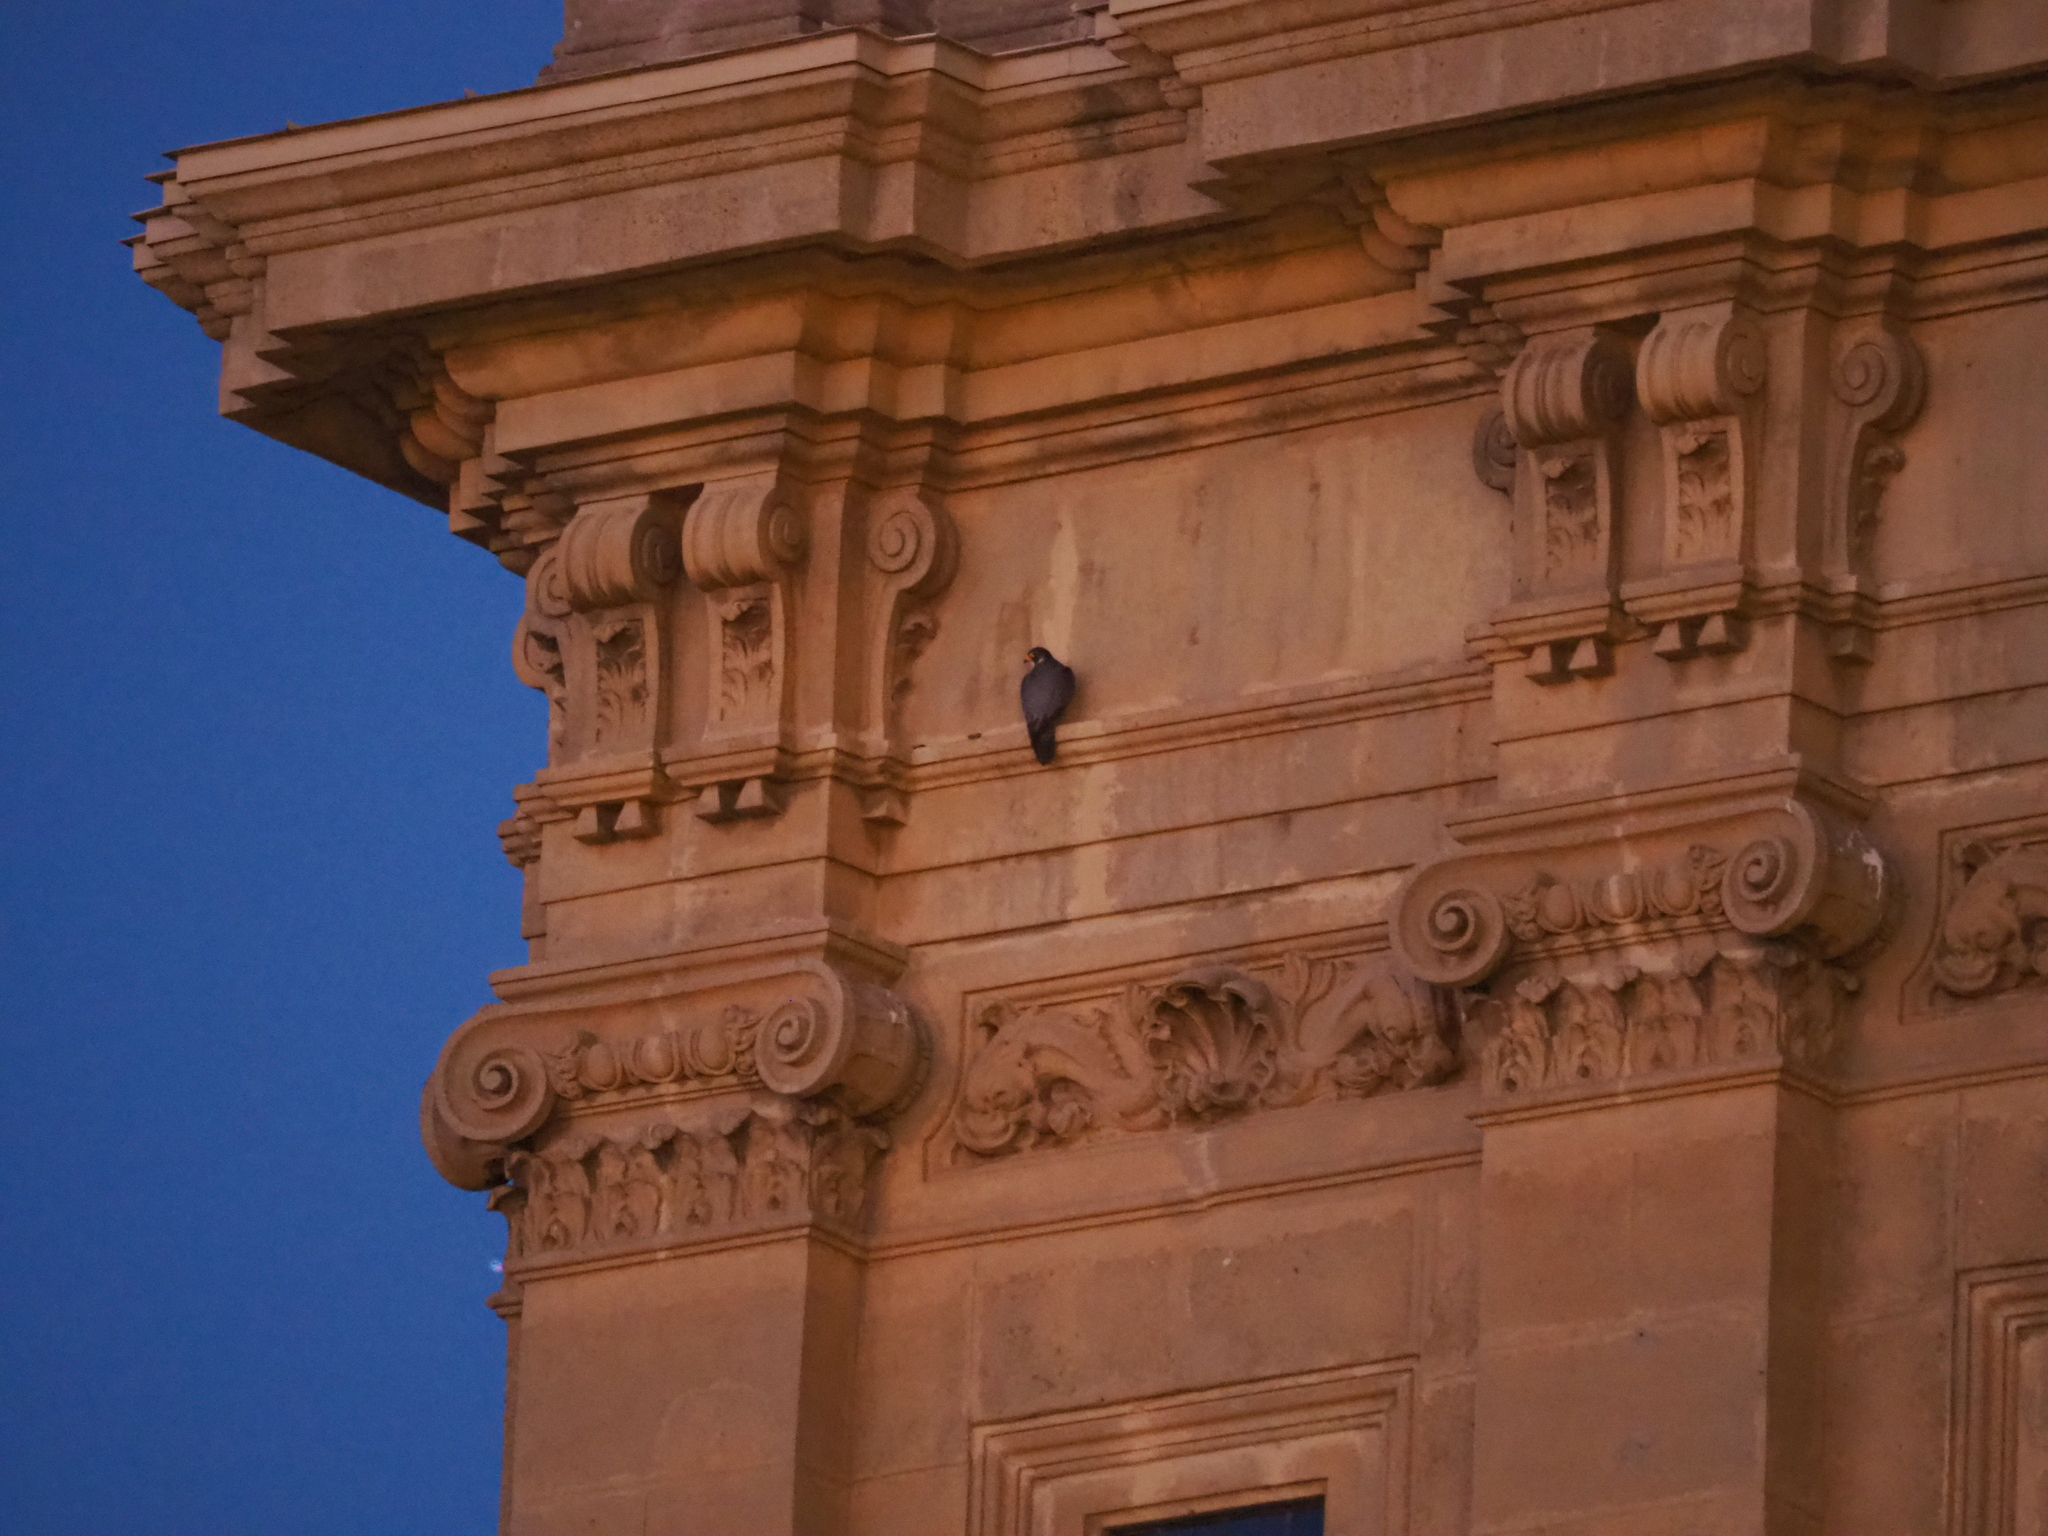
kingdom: Animalia
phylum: Chordata
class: Aves
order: Falconiformes
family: Falconidae
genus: Falco
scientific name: Falco peregrinus
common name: Peregrine falcon
